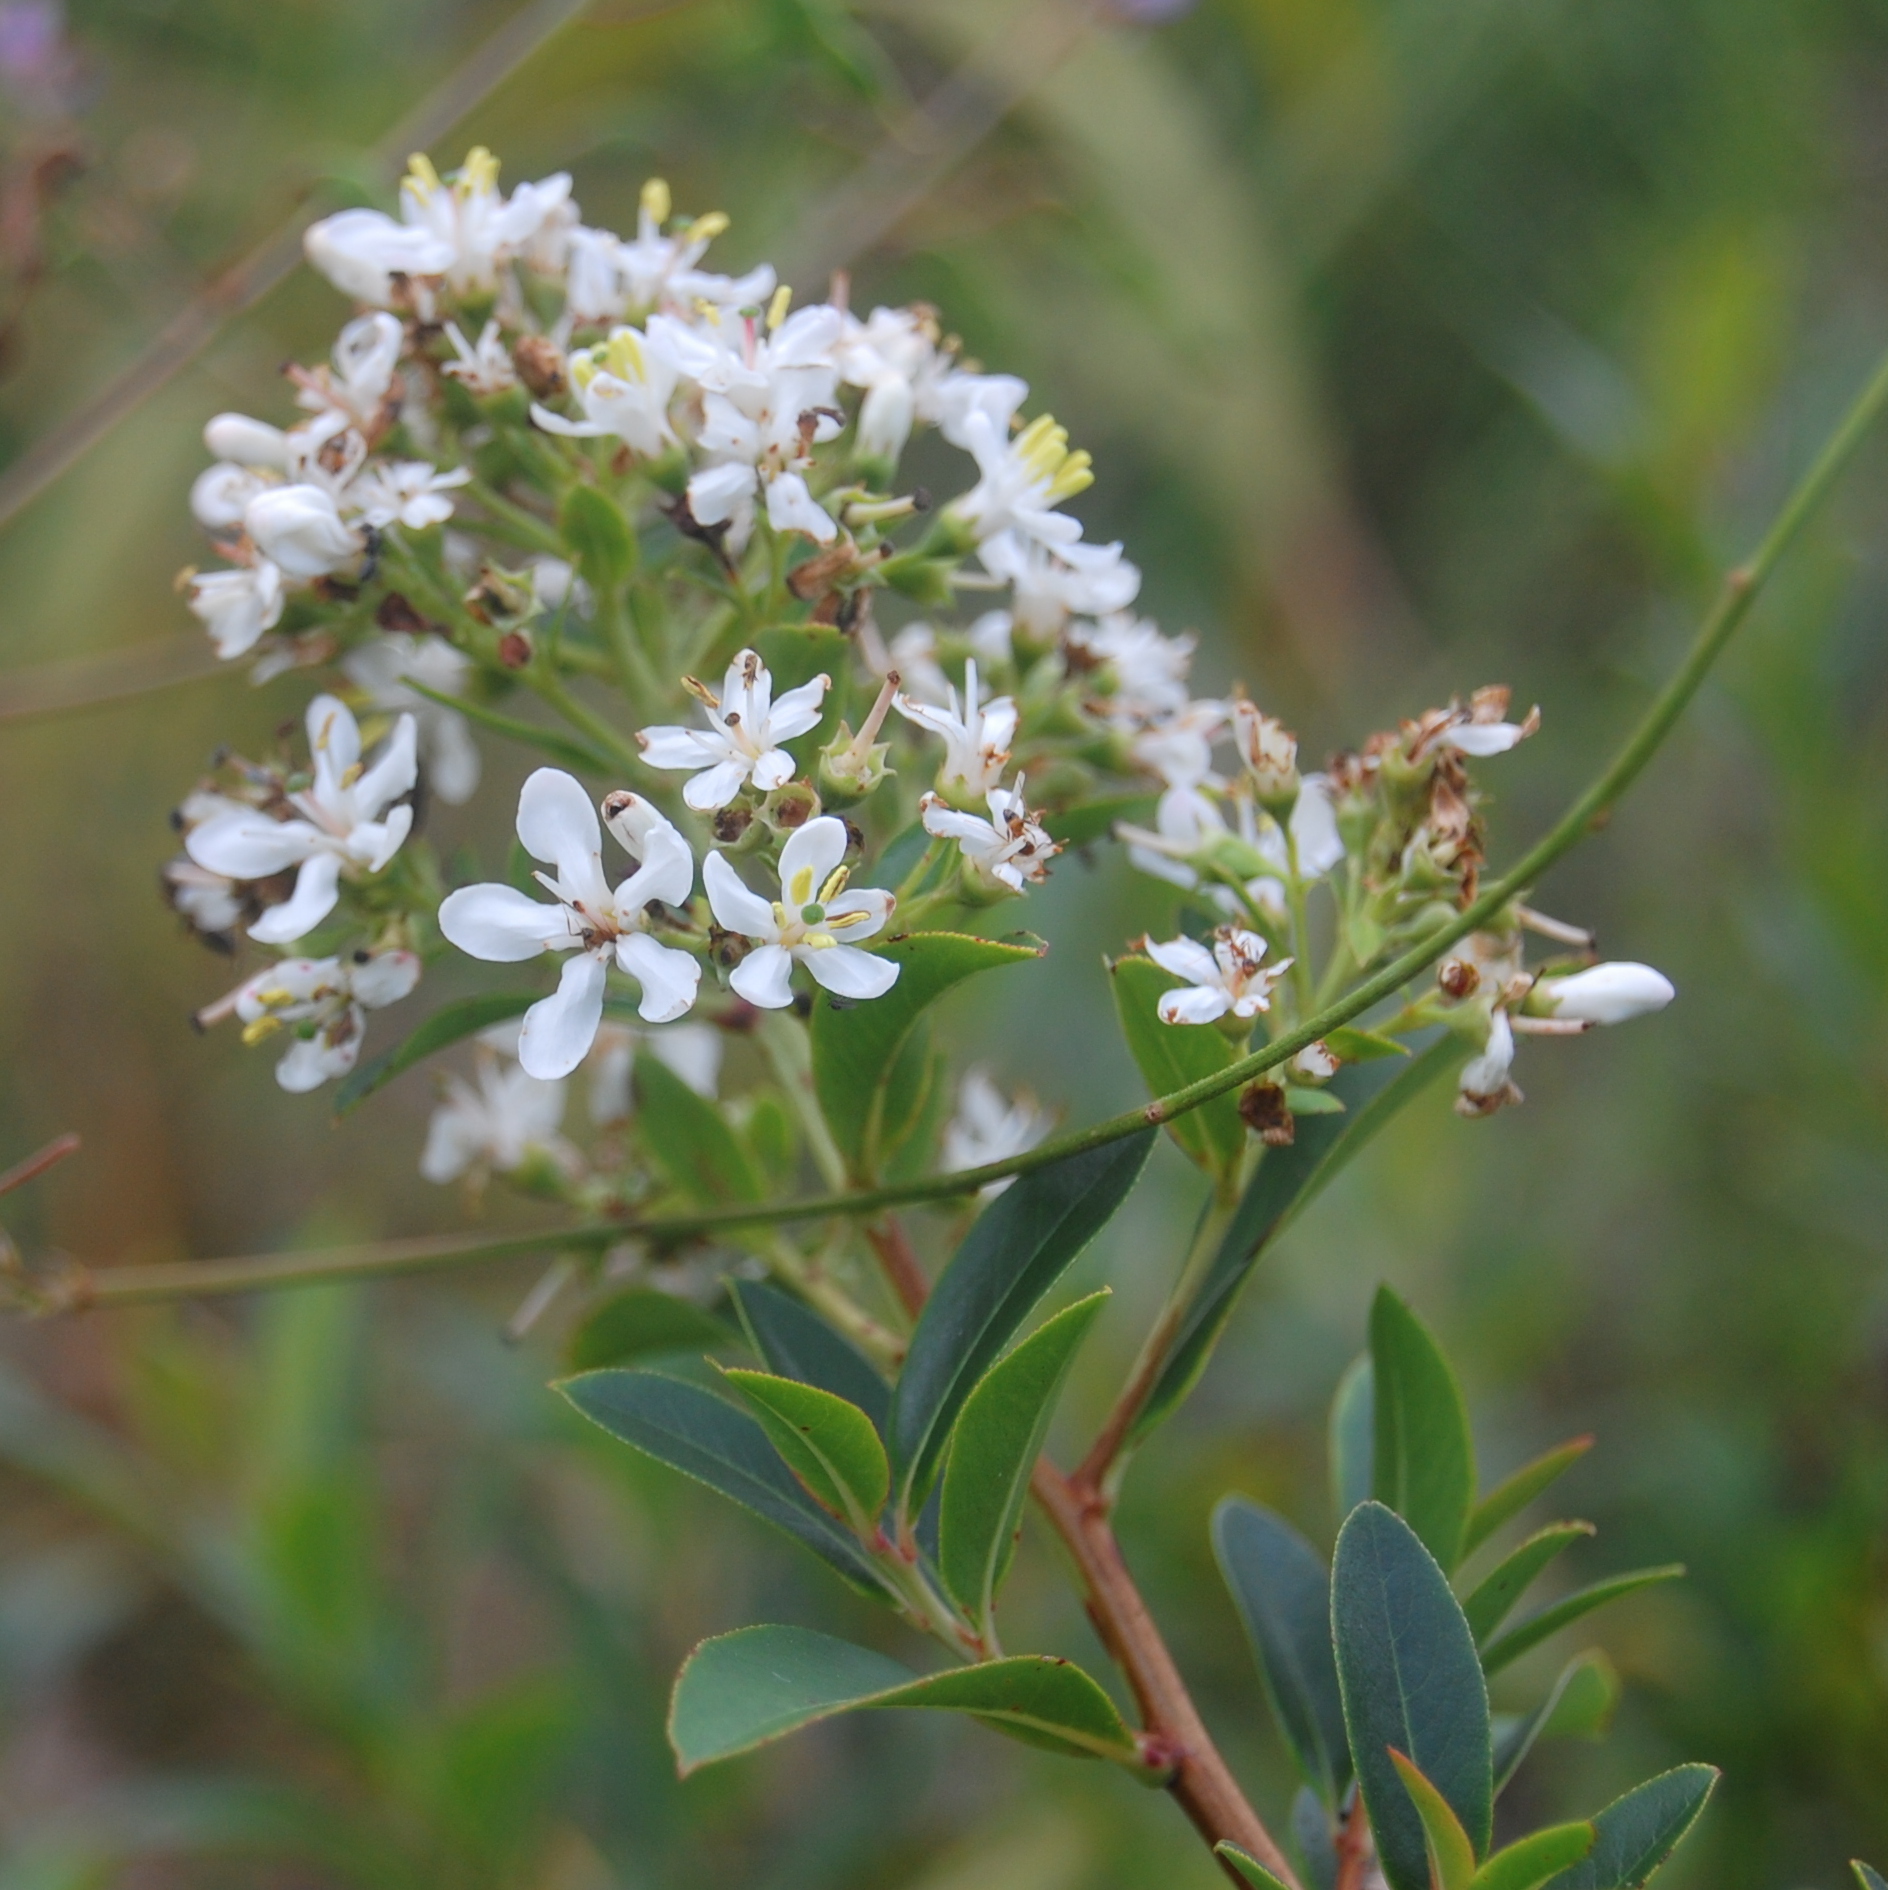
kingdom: Plantae
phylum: Tracheophyta
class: Magnoliopsida
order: Escalloniales
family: Escalloniaceae
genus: Escallonia
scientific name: Escallonia bifida
